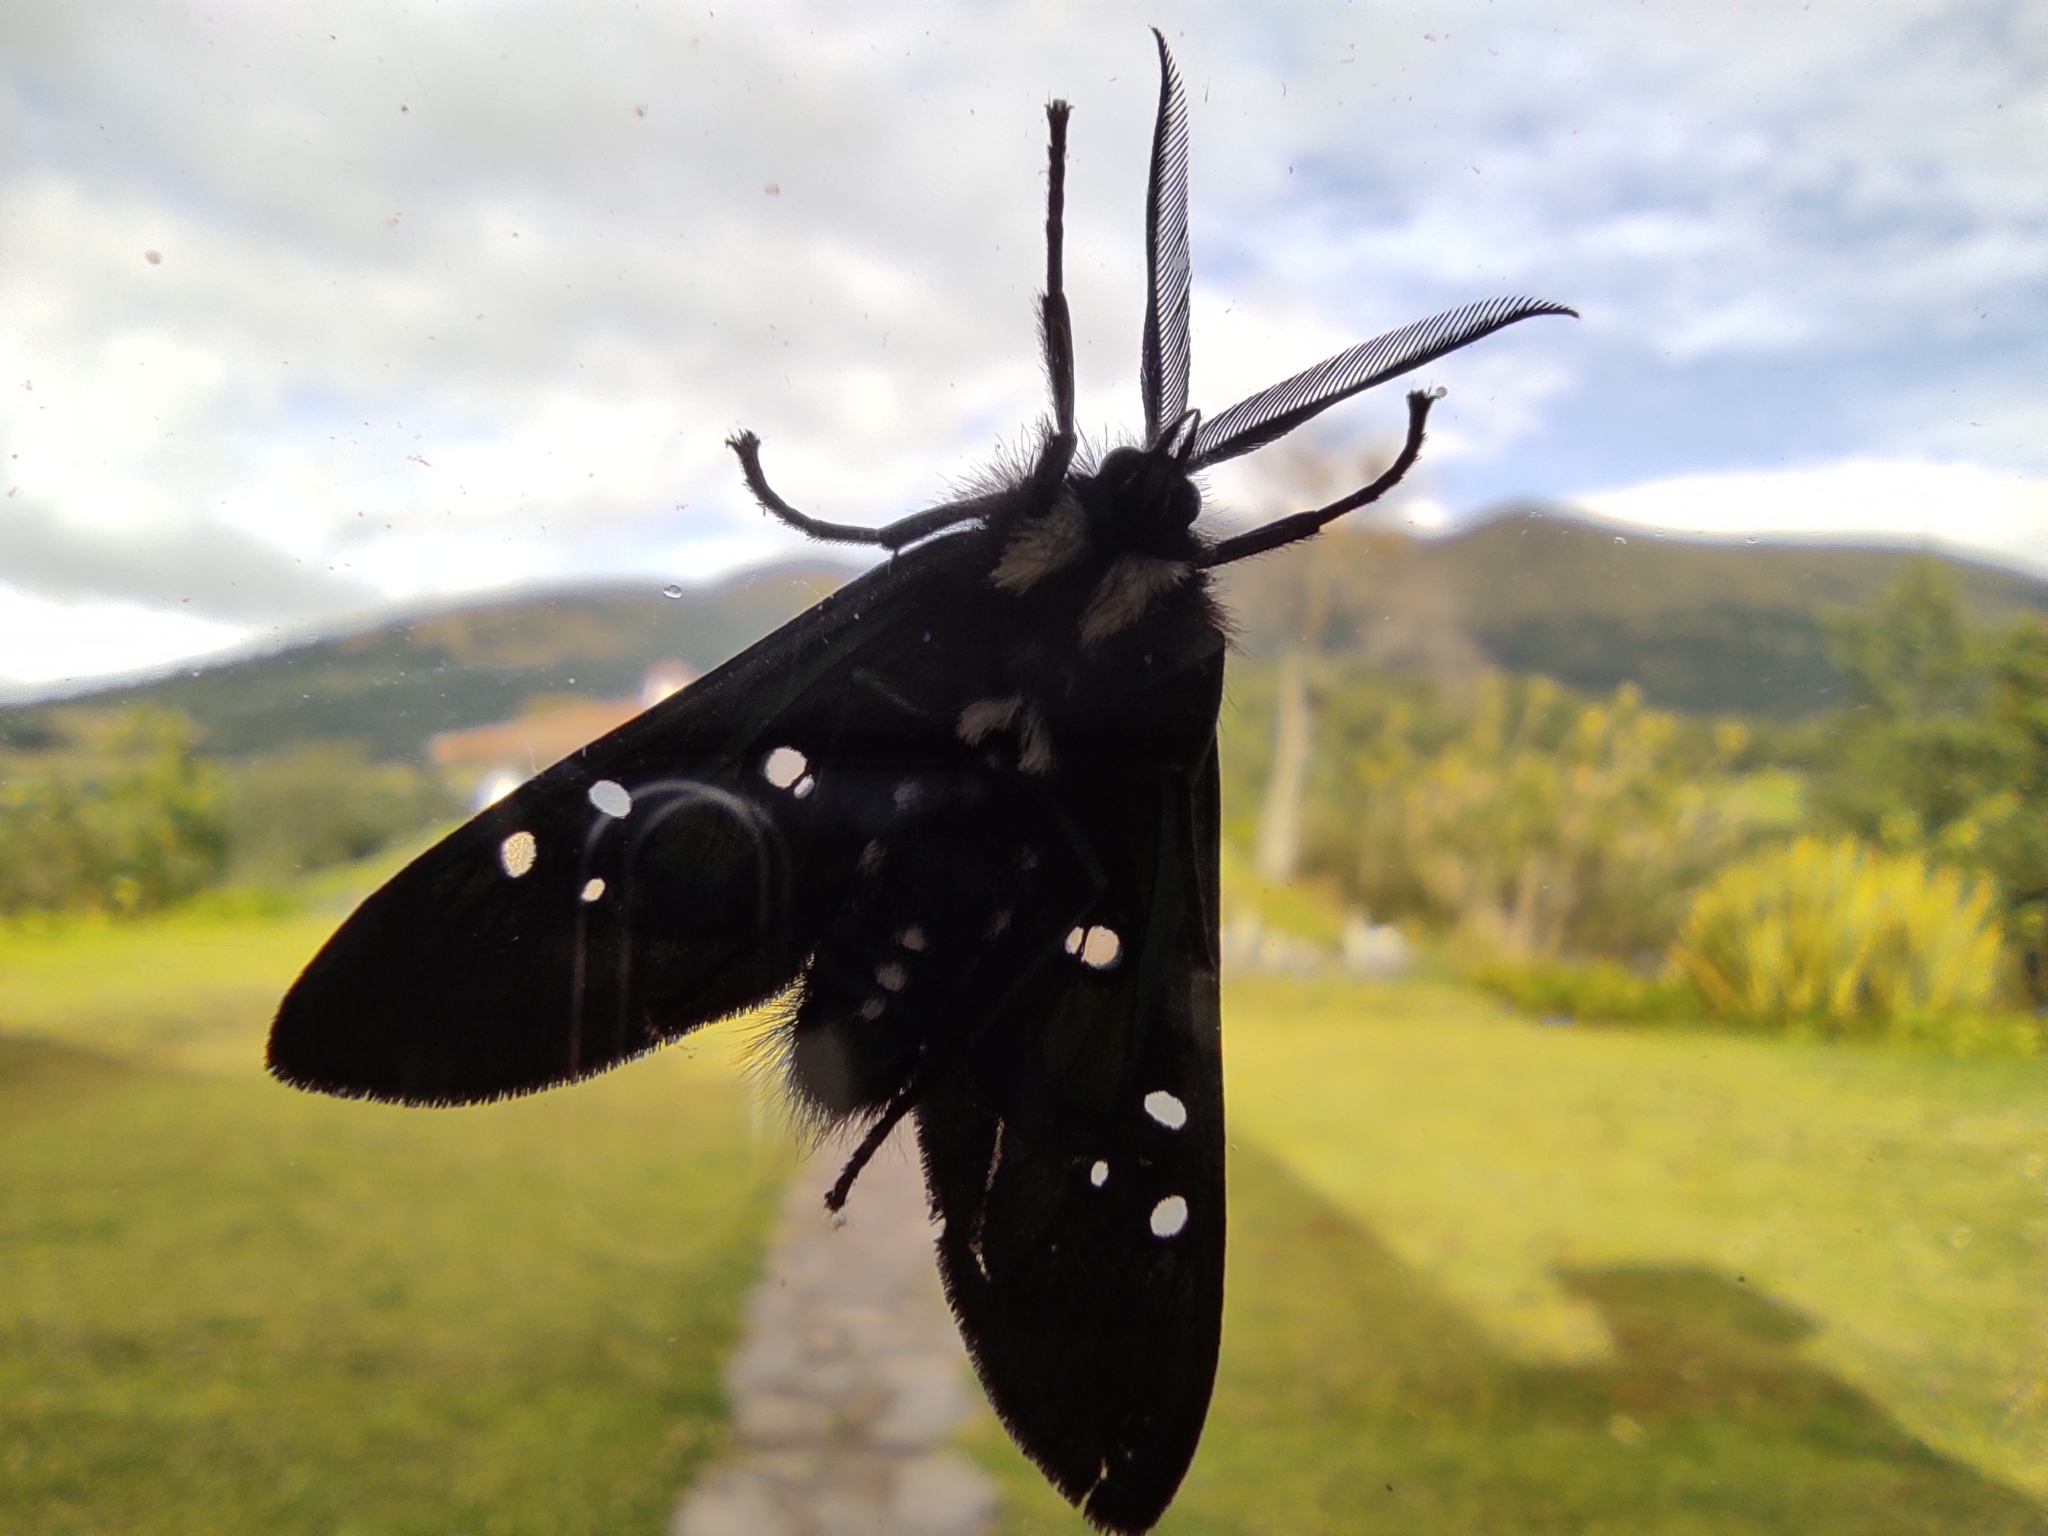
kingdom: Animalia
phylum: Arthropoda
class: Insecta
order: Lepidoptera
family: Erebidae
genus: Chrysocale
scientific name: Chrysocale regalis
